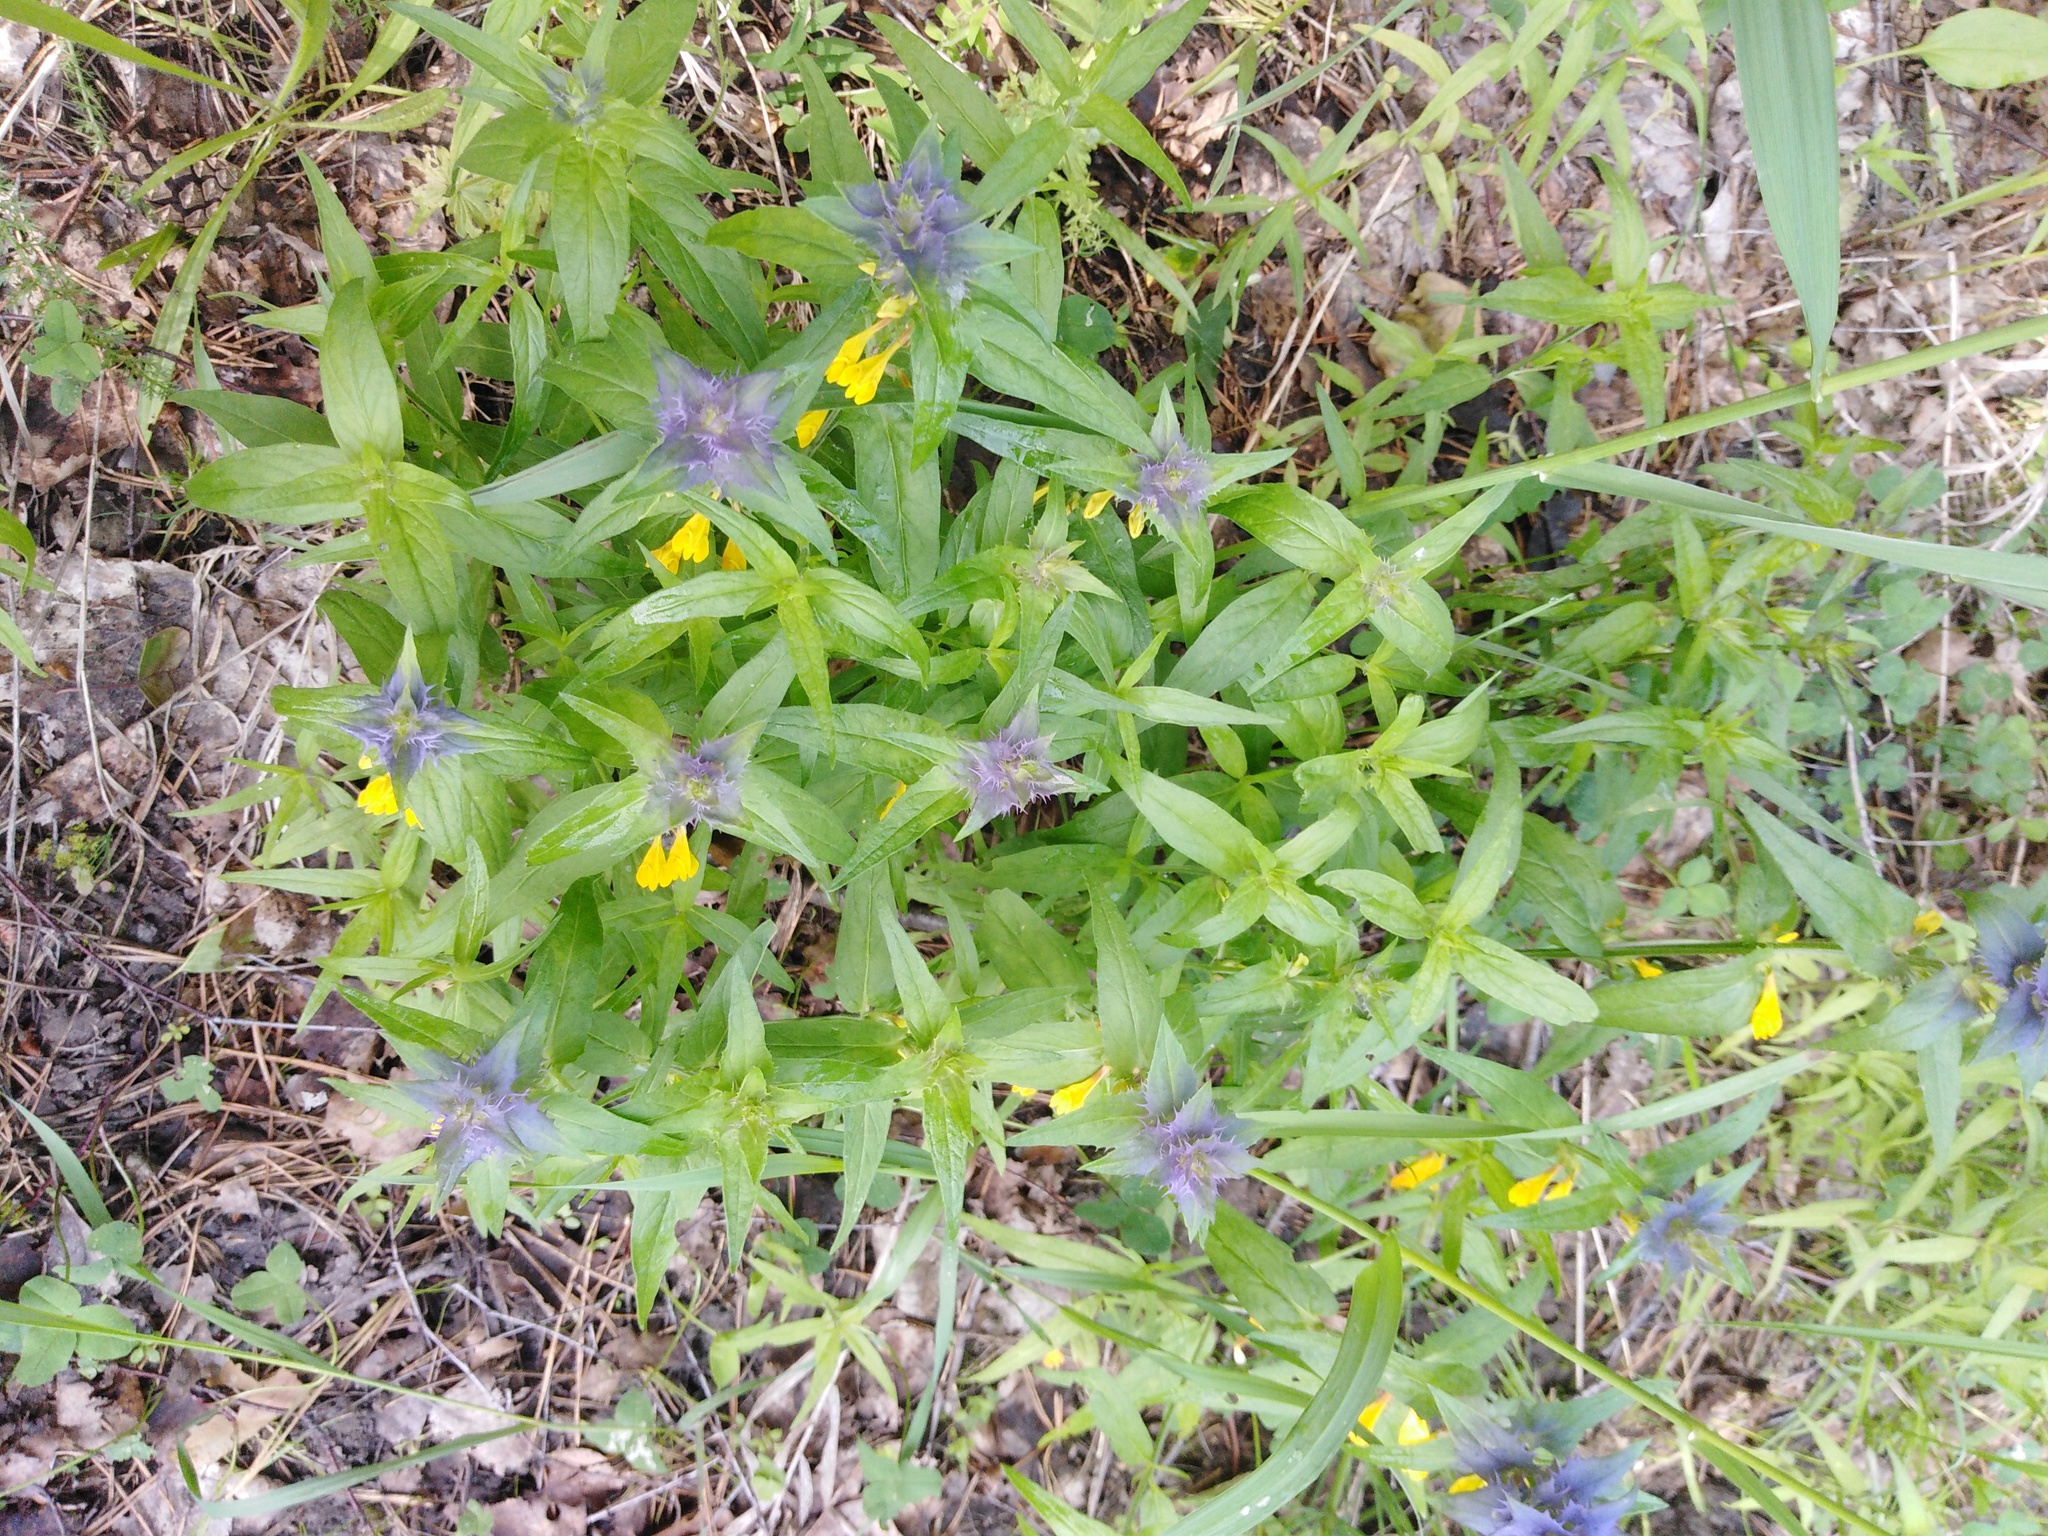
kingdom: Plantae
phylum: Tracheophyta
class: Magnoliopsida
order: Lamiales
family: Orobanchaceae
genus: Melampyrum
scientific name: Melampyrum nemorosum
